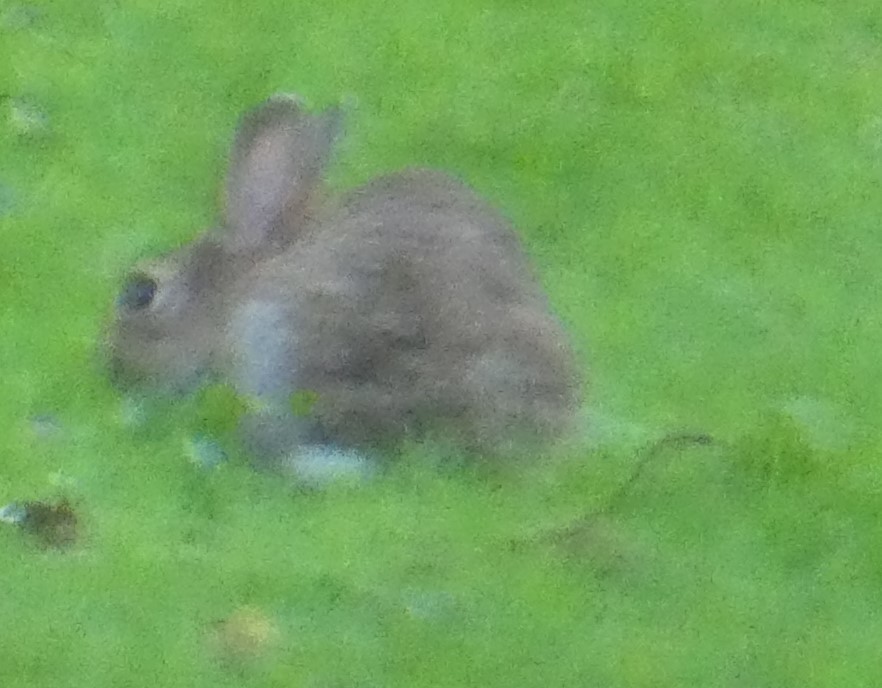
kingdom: Animalia
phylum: Chordata
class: Mammalia
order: Lagomorpha
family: Leporidae
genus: Oryctolagus
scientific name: Oryctolagus cuniculus
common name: European rabbit
